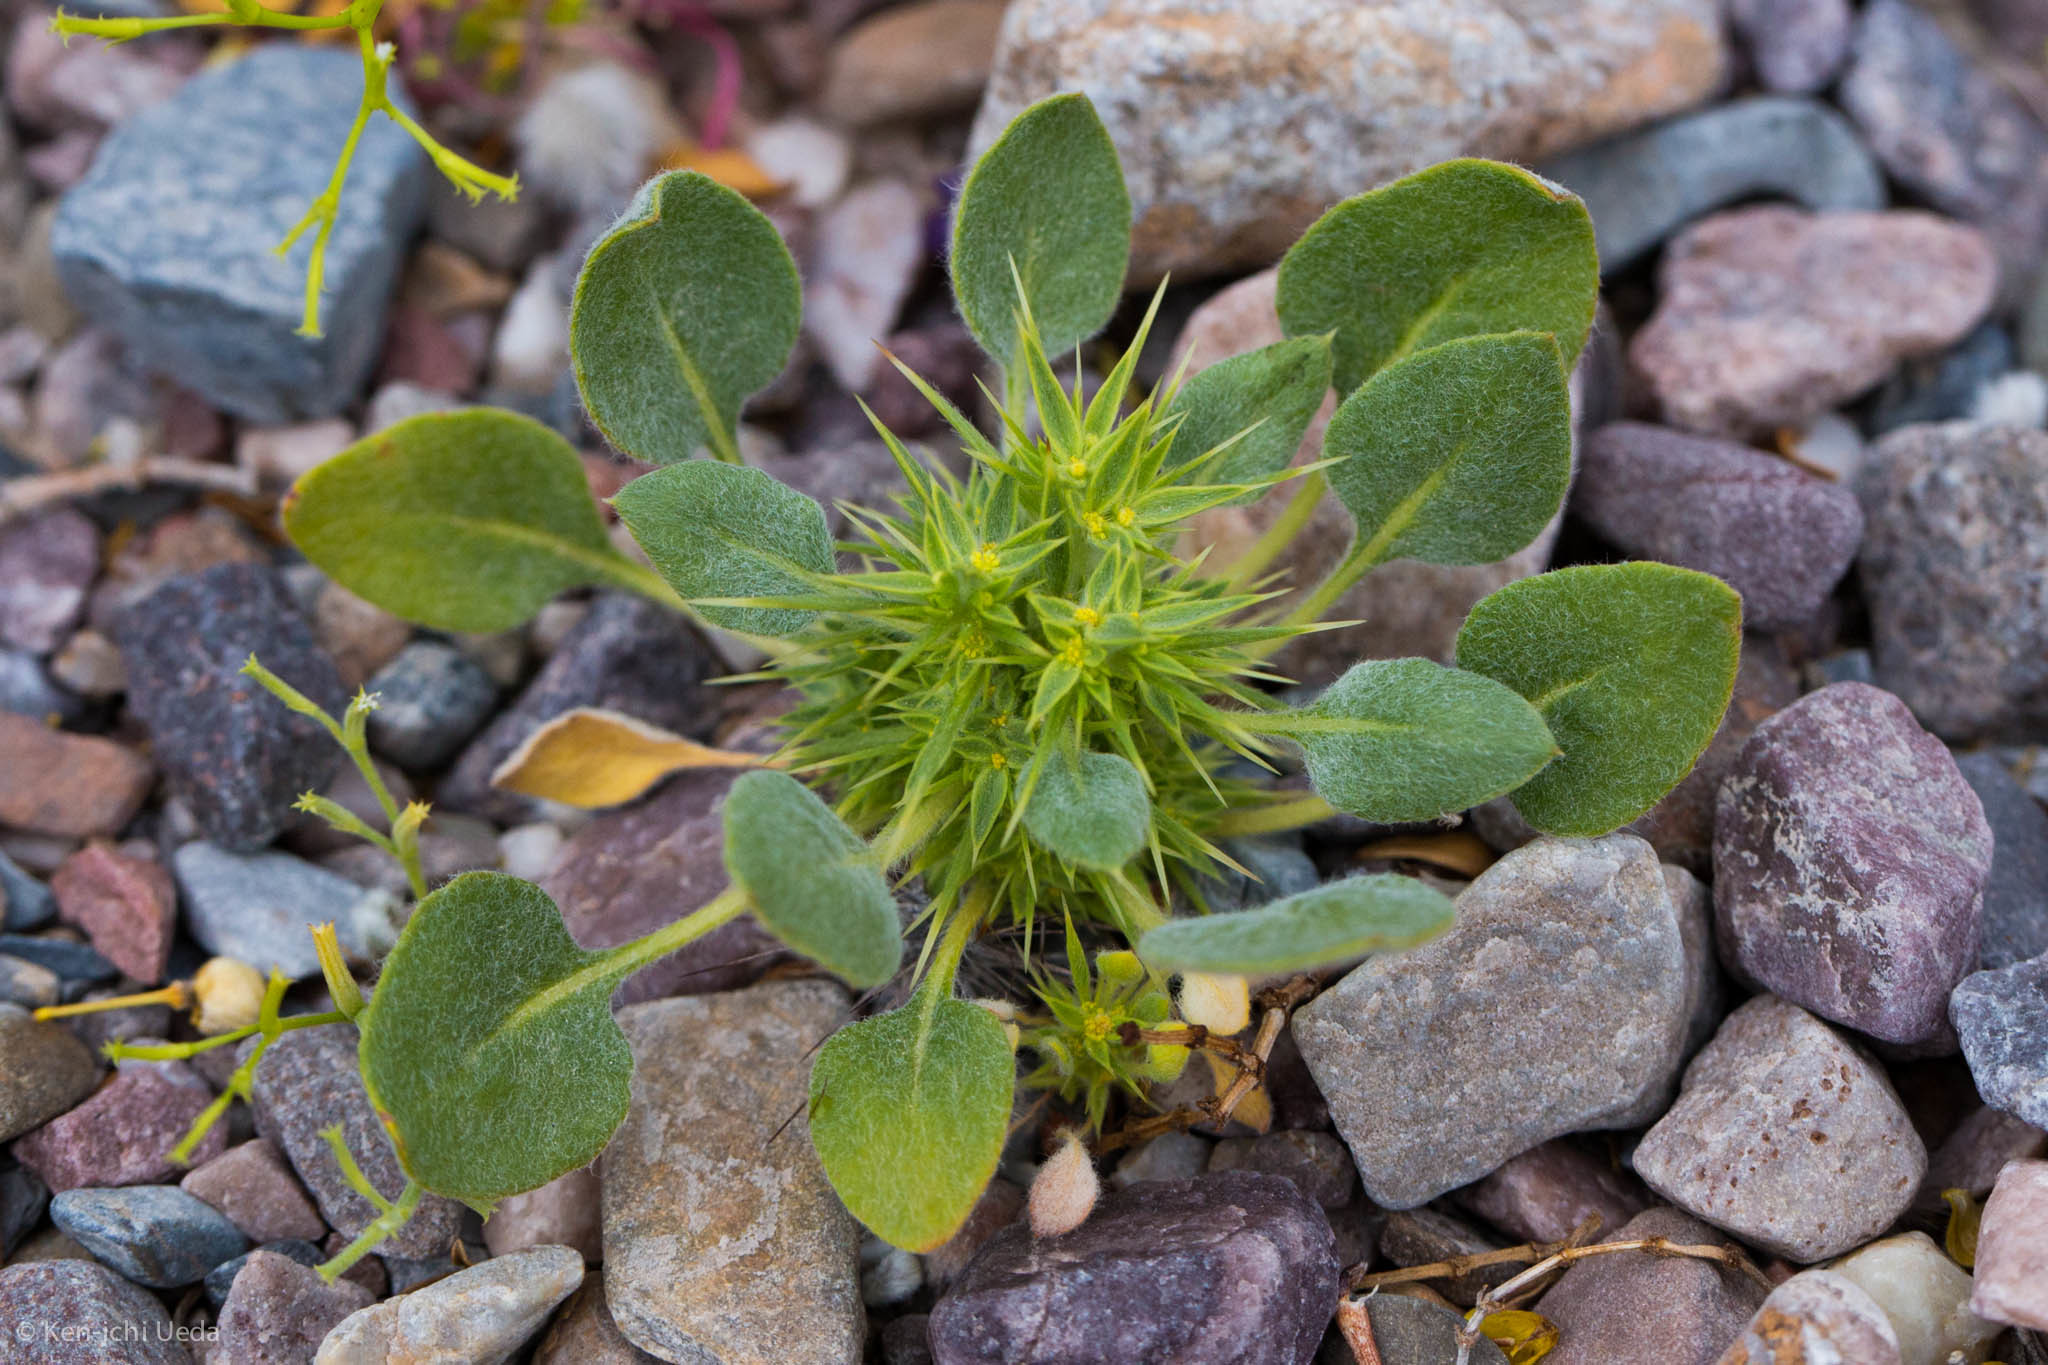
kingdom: Plantae
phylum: Tracheophyta
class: Magnoliopsida
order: Caryophyllales
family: Polygonaceae
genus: Chorizanthe
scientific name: Chorizanthe rigida
